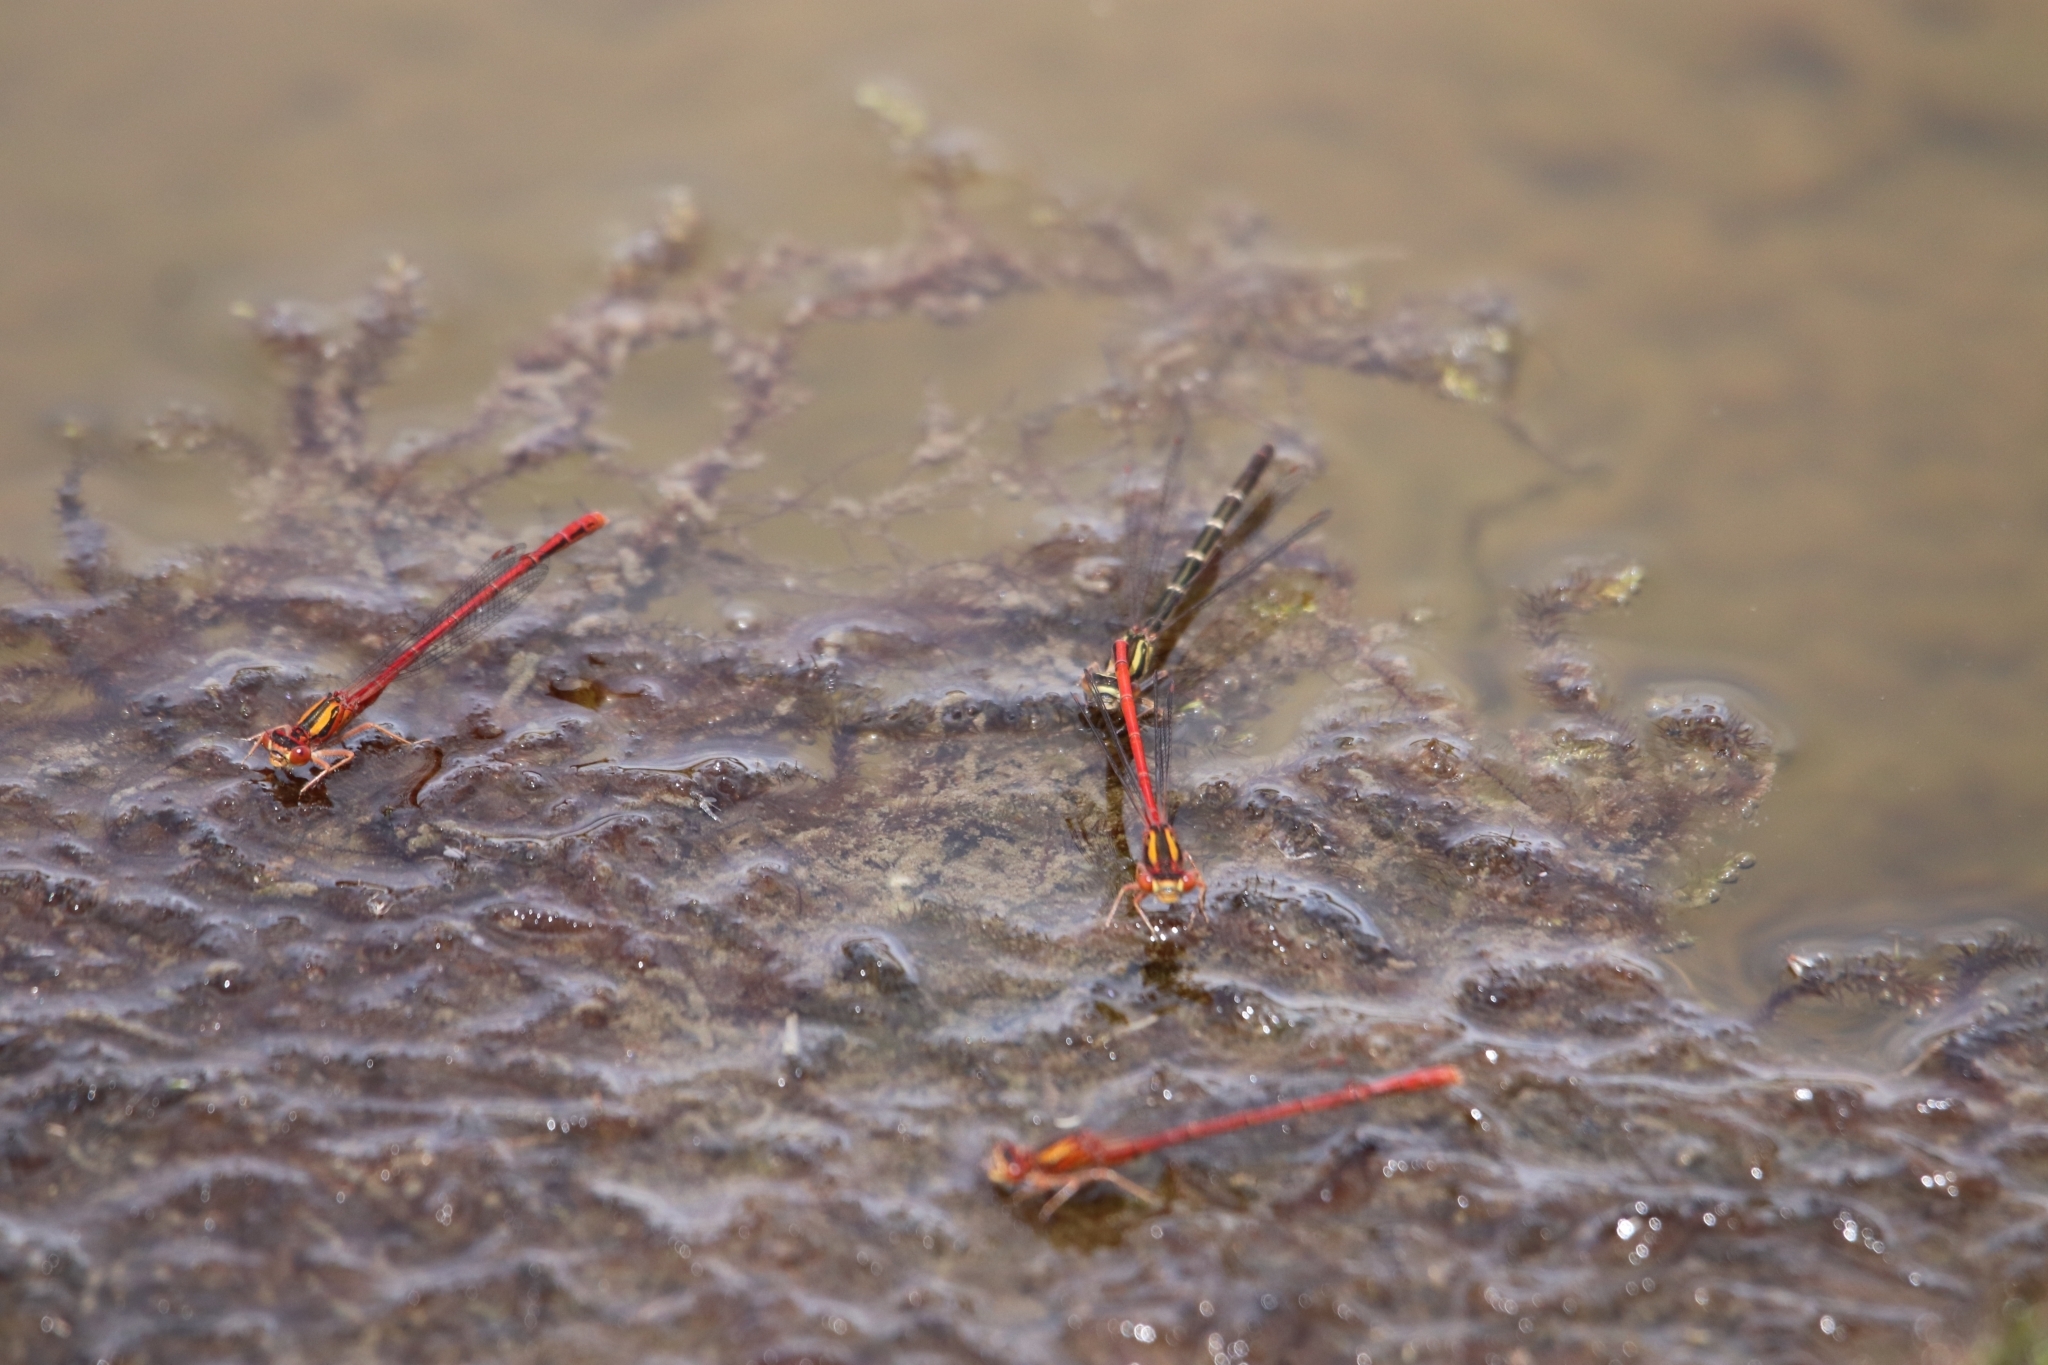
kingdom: Animalia
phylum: Arthropoda
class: Insecta
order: Odonata
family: Coenagrionidae
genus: Xanthocnemis
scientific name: Xanthocnemis zealandica
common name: Common redcoat damselfly
